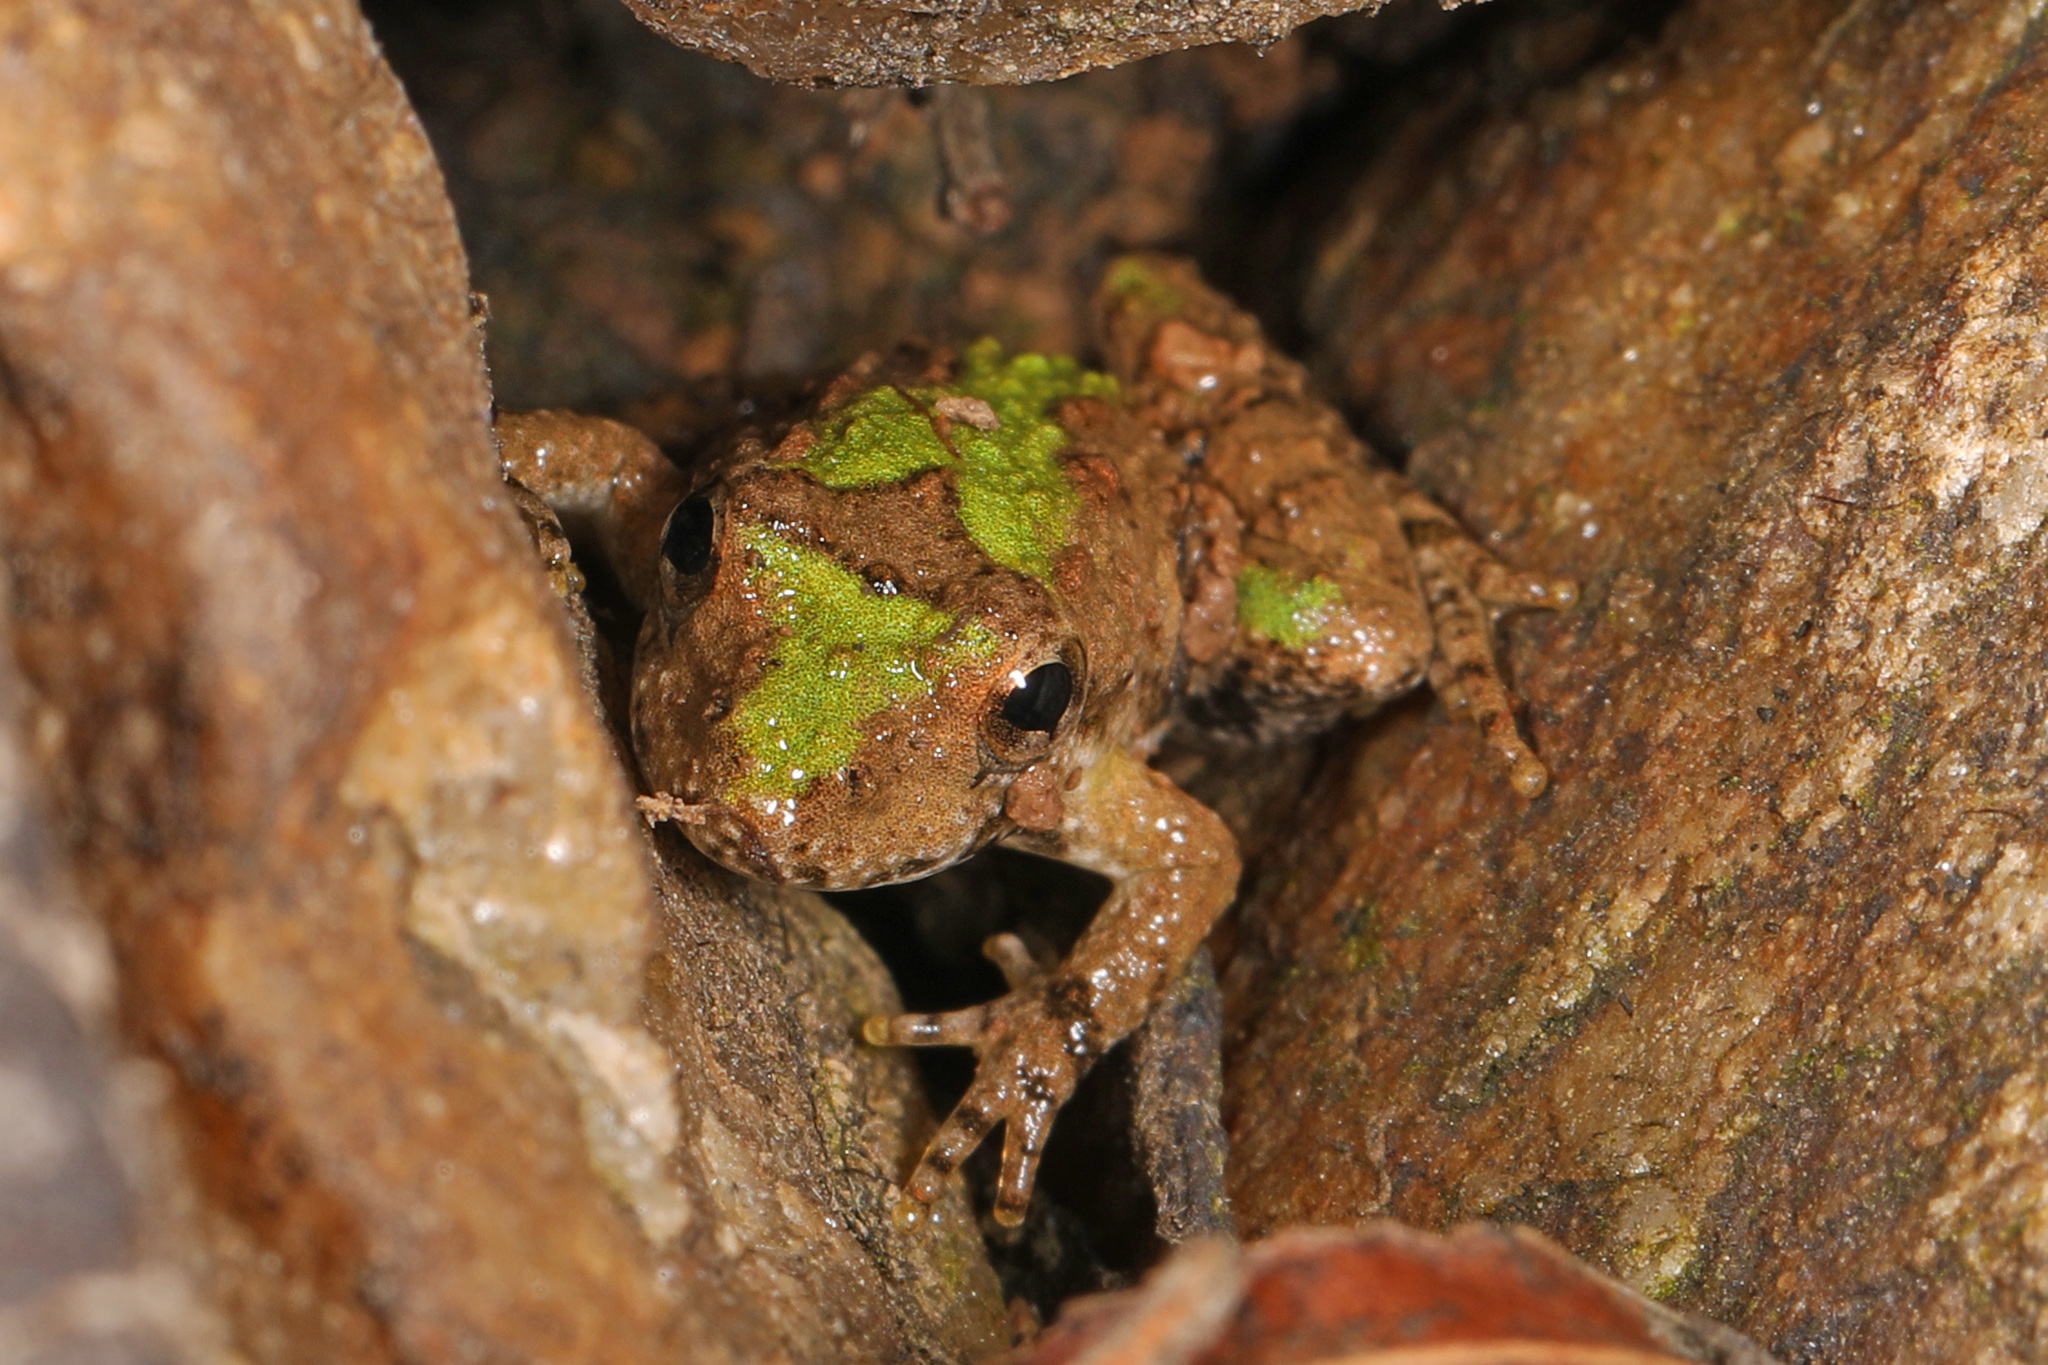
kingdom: Animalia
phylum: Chordata
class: Amphibia
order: Anura
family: Hylidae
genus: Acris
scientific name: Acris crepitans
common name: Northern cricket frog
